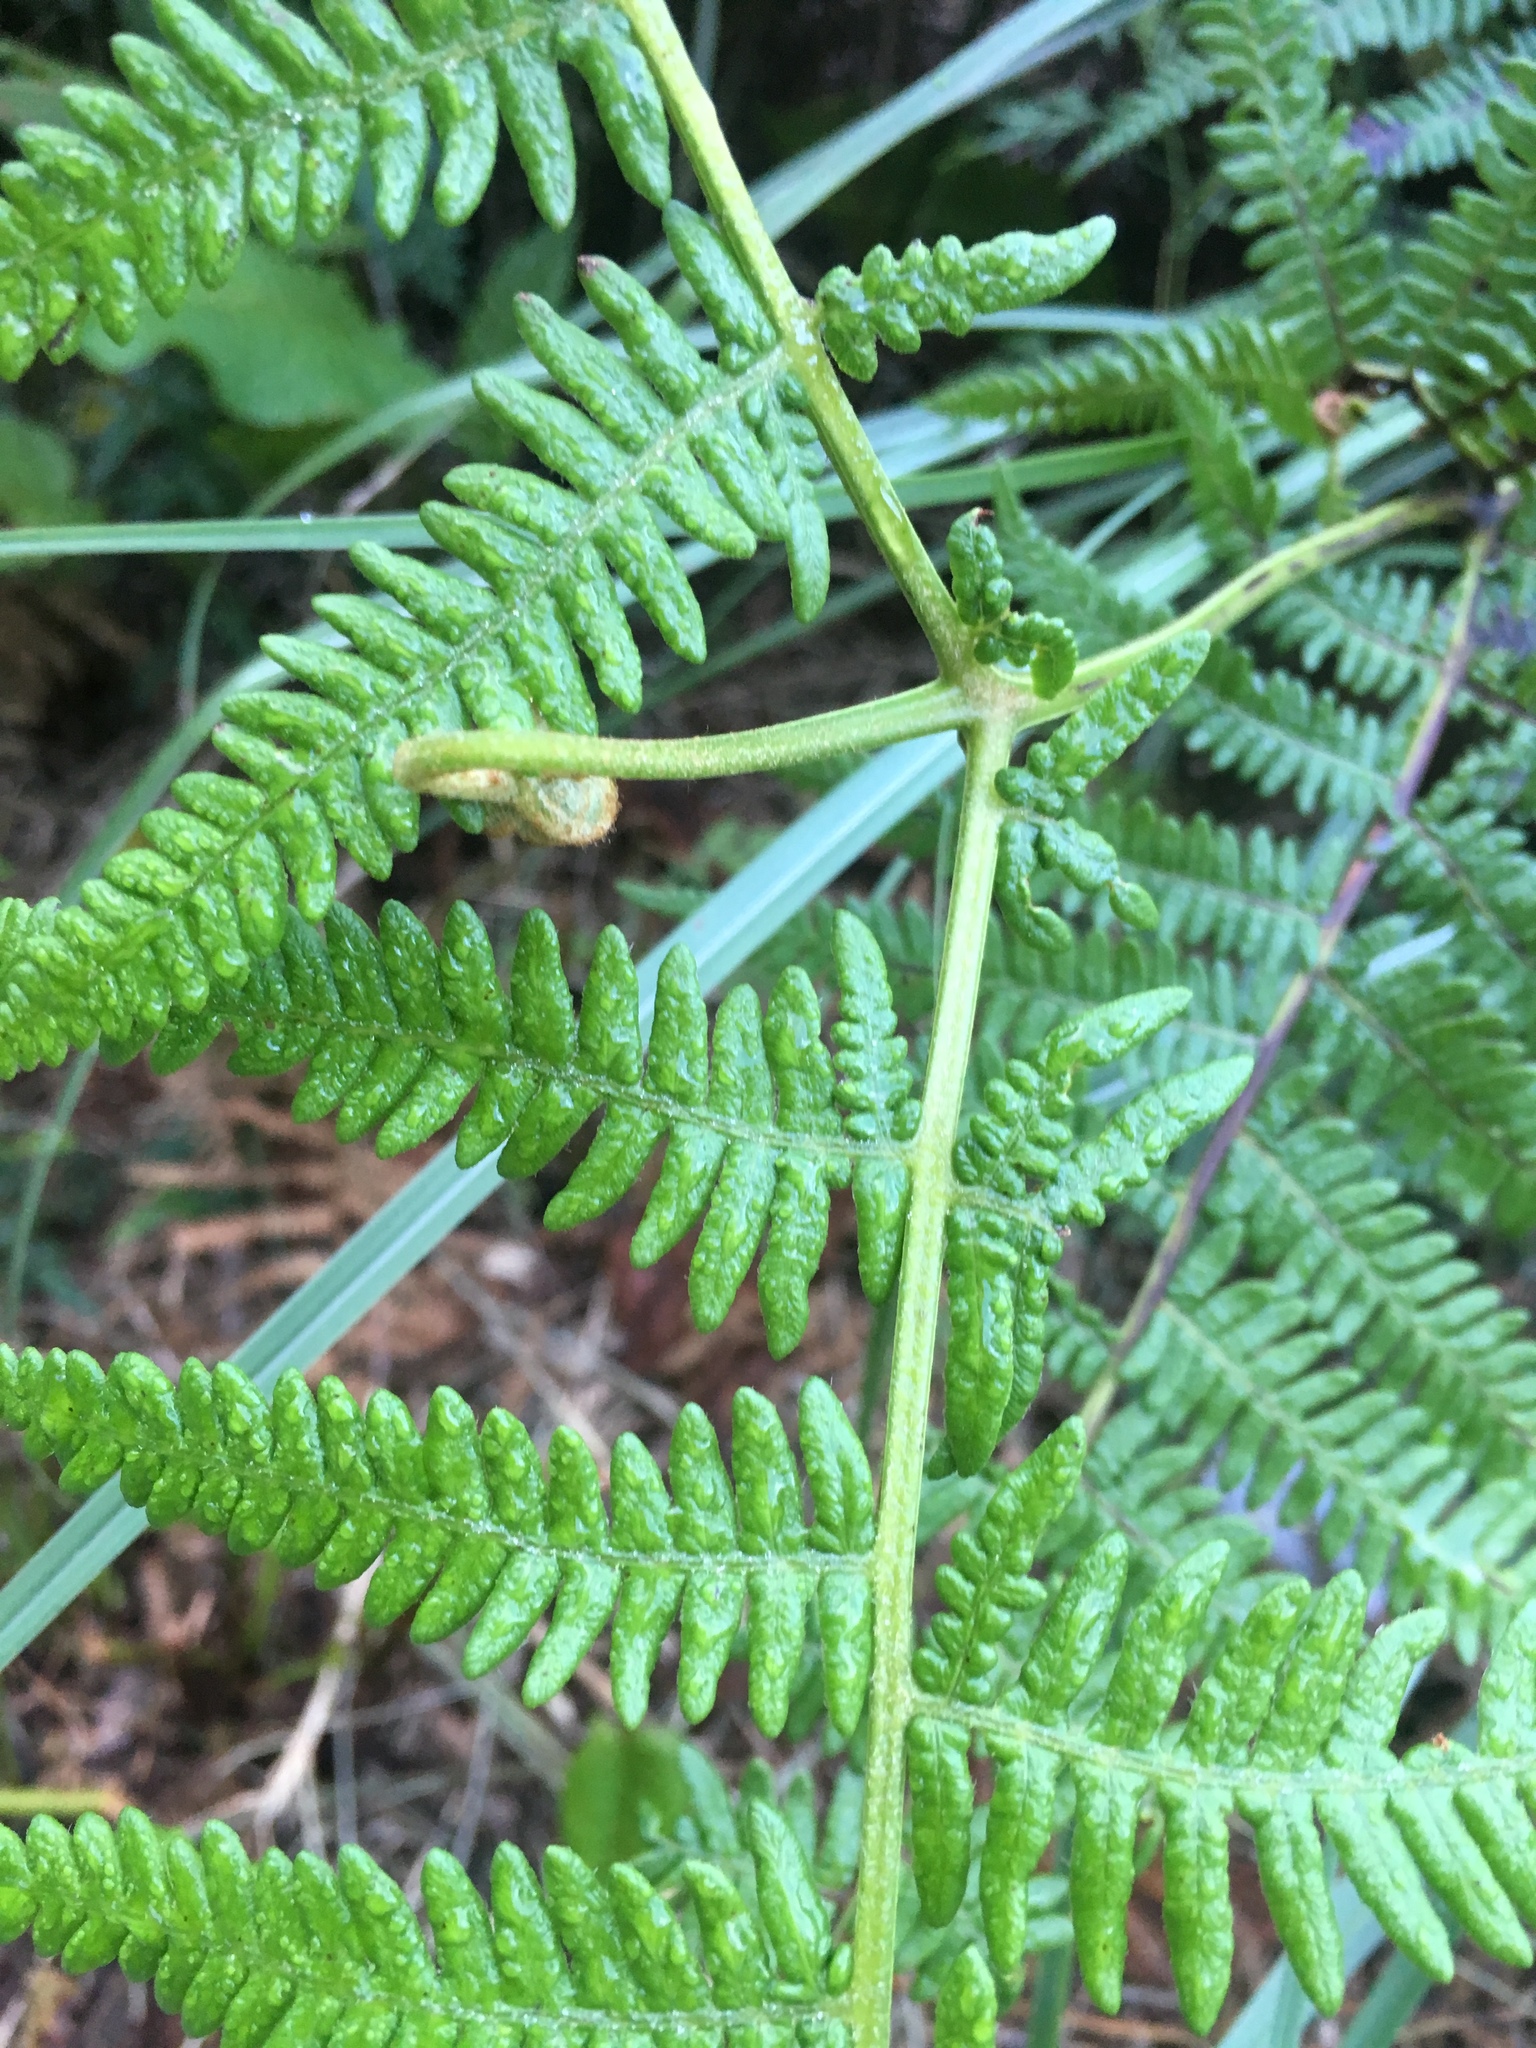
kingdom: Plantae
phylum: Tracheophyta
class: Polypodiopsida
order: Polypodiales
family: Dennstaedtiaceae
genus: Pteridium
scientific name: Pteridium aquilinum
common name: Bracken
